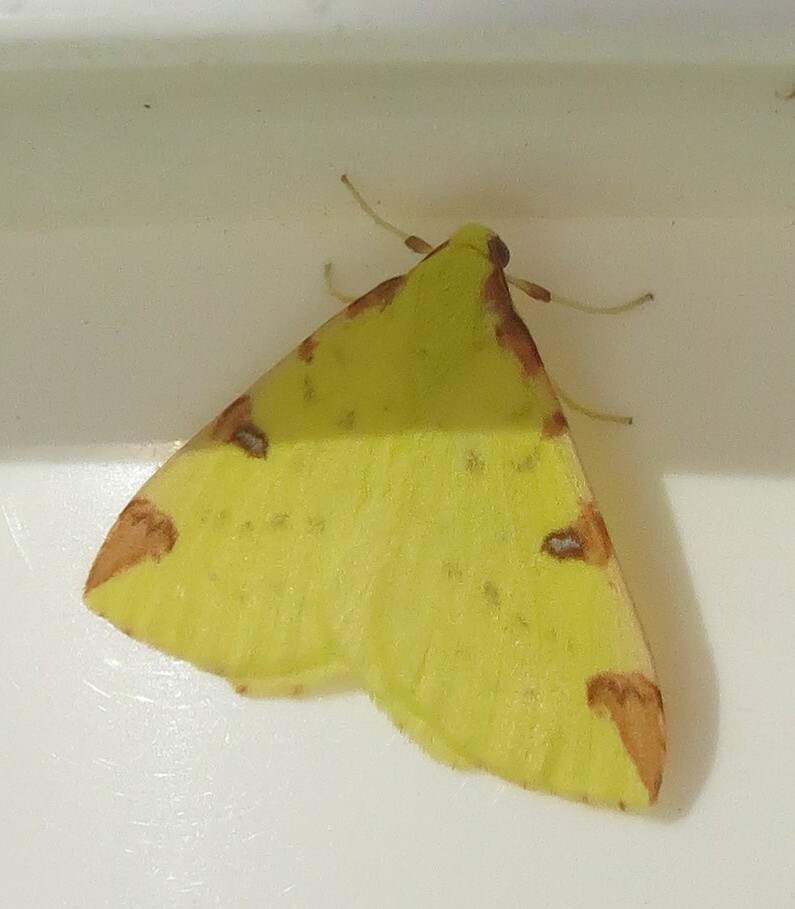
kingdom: Animalia
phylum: Arthropoda
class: Insecta
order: Lepidoptera
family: Geometridae
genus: Opisthograptis
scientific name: Opisthograptis luteolata
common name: Brimstone moth
